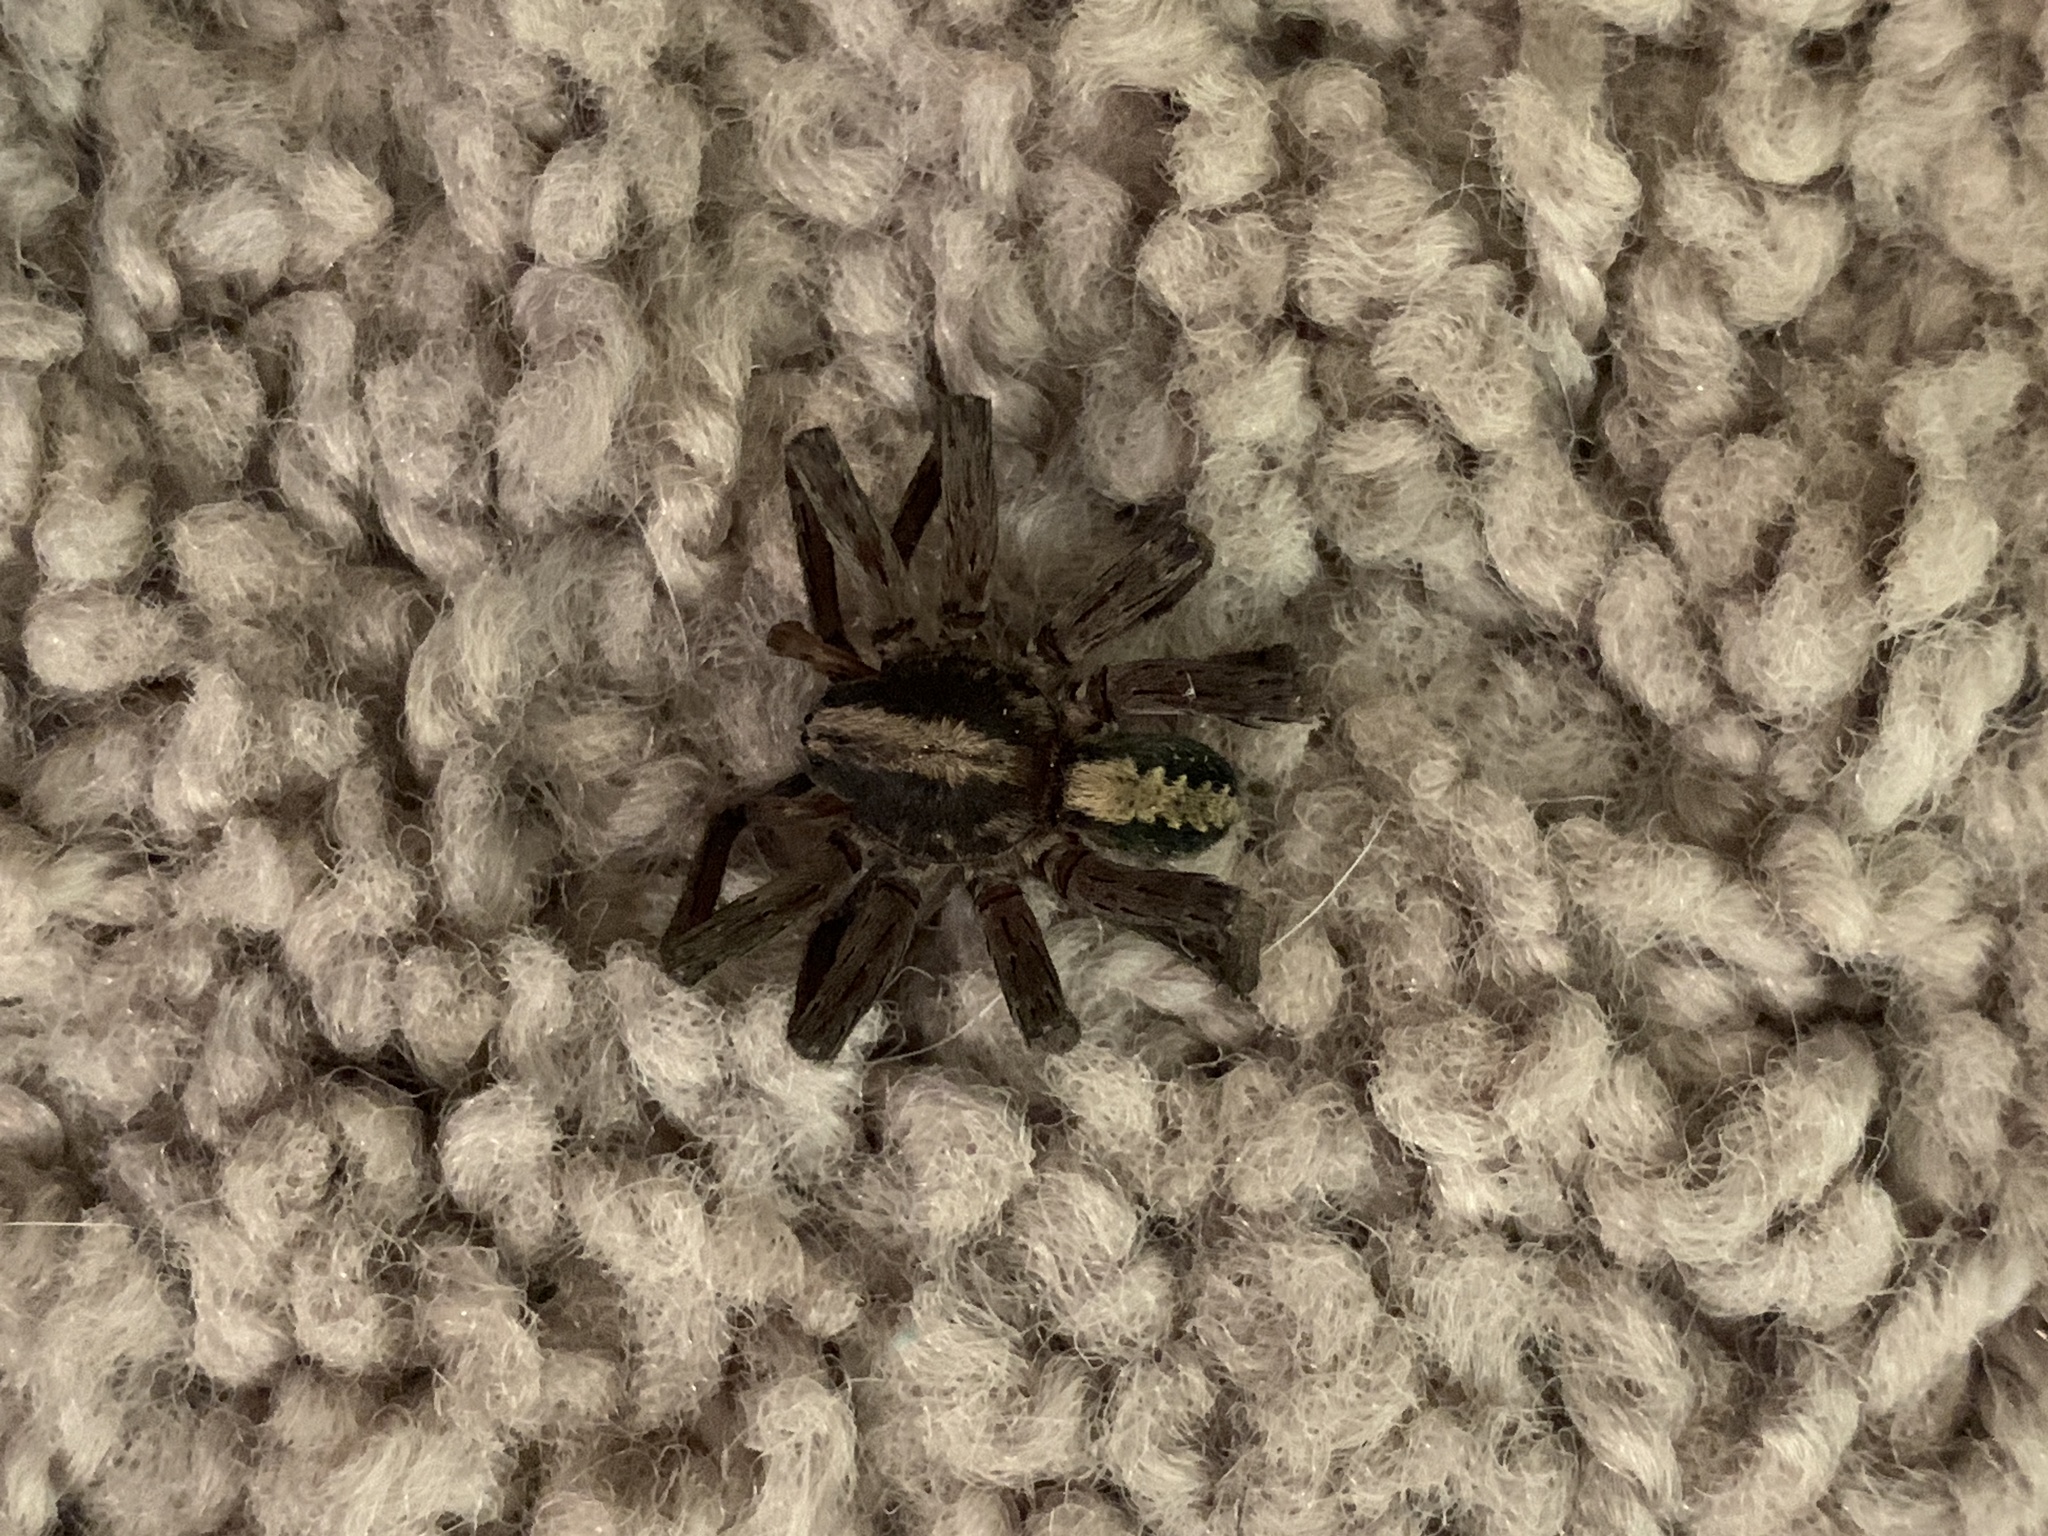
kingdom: Animalia
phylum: Arthropoda
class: Arachnida
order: Araneae
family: Ctenidae
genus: Ctenus
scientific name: Ctenus hibernalis
